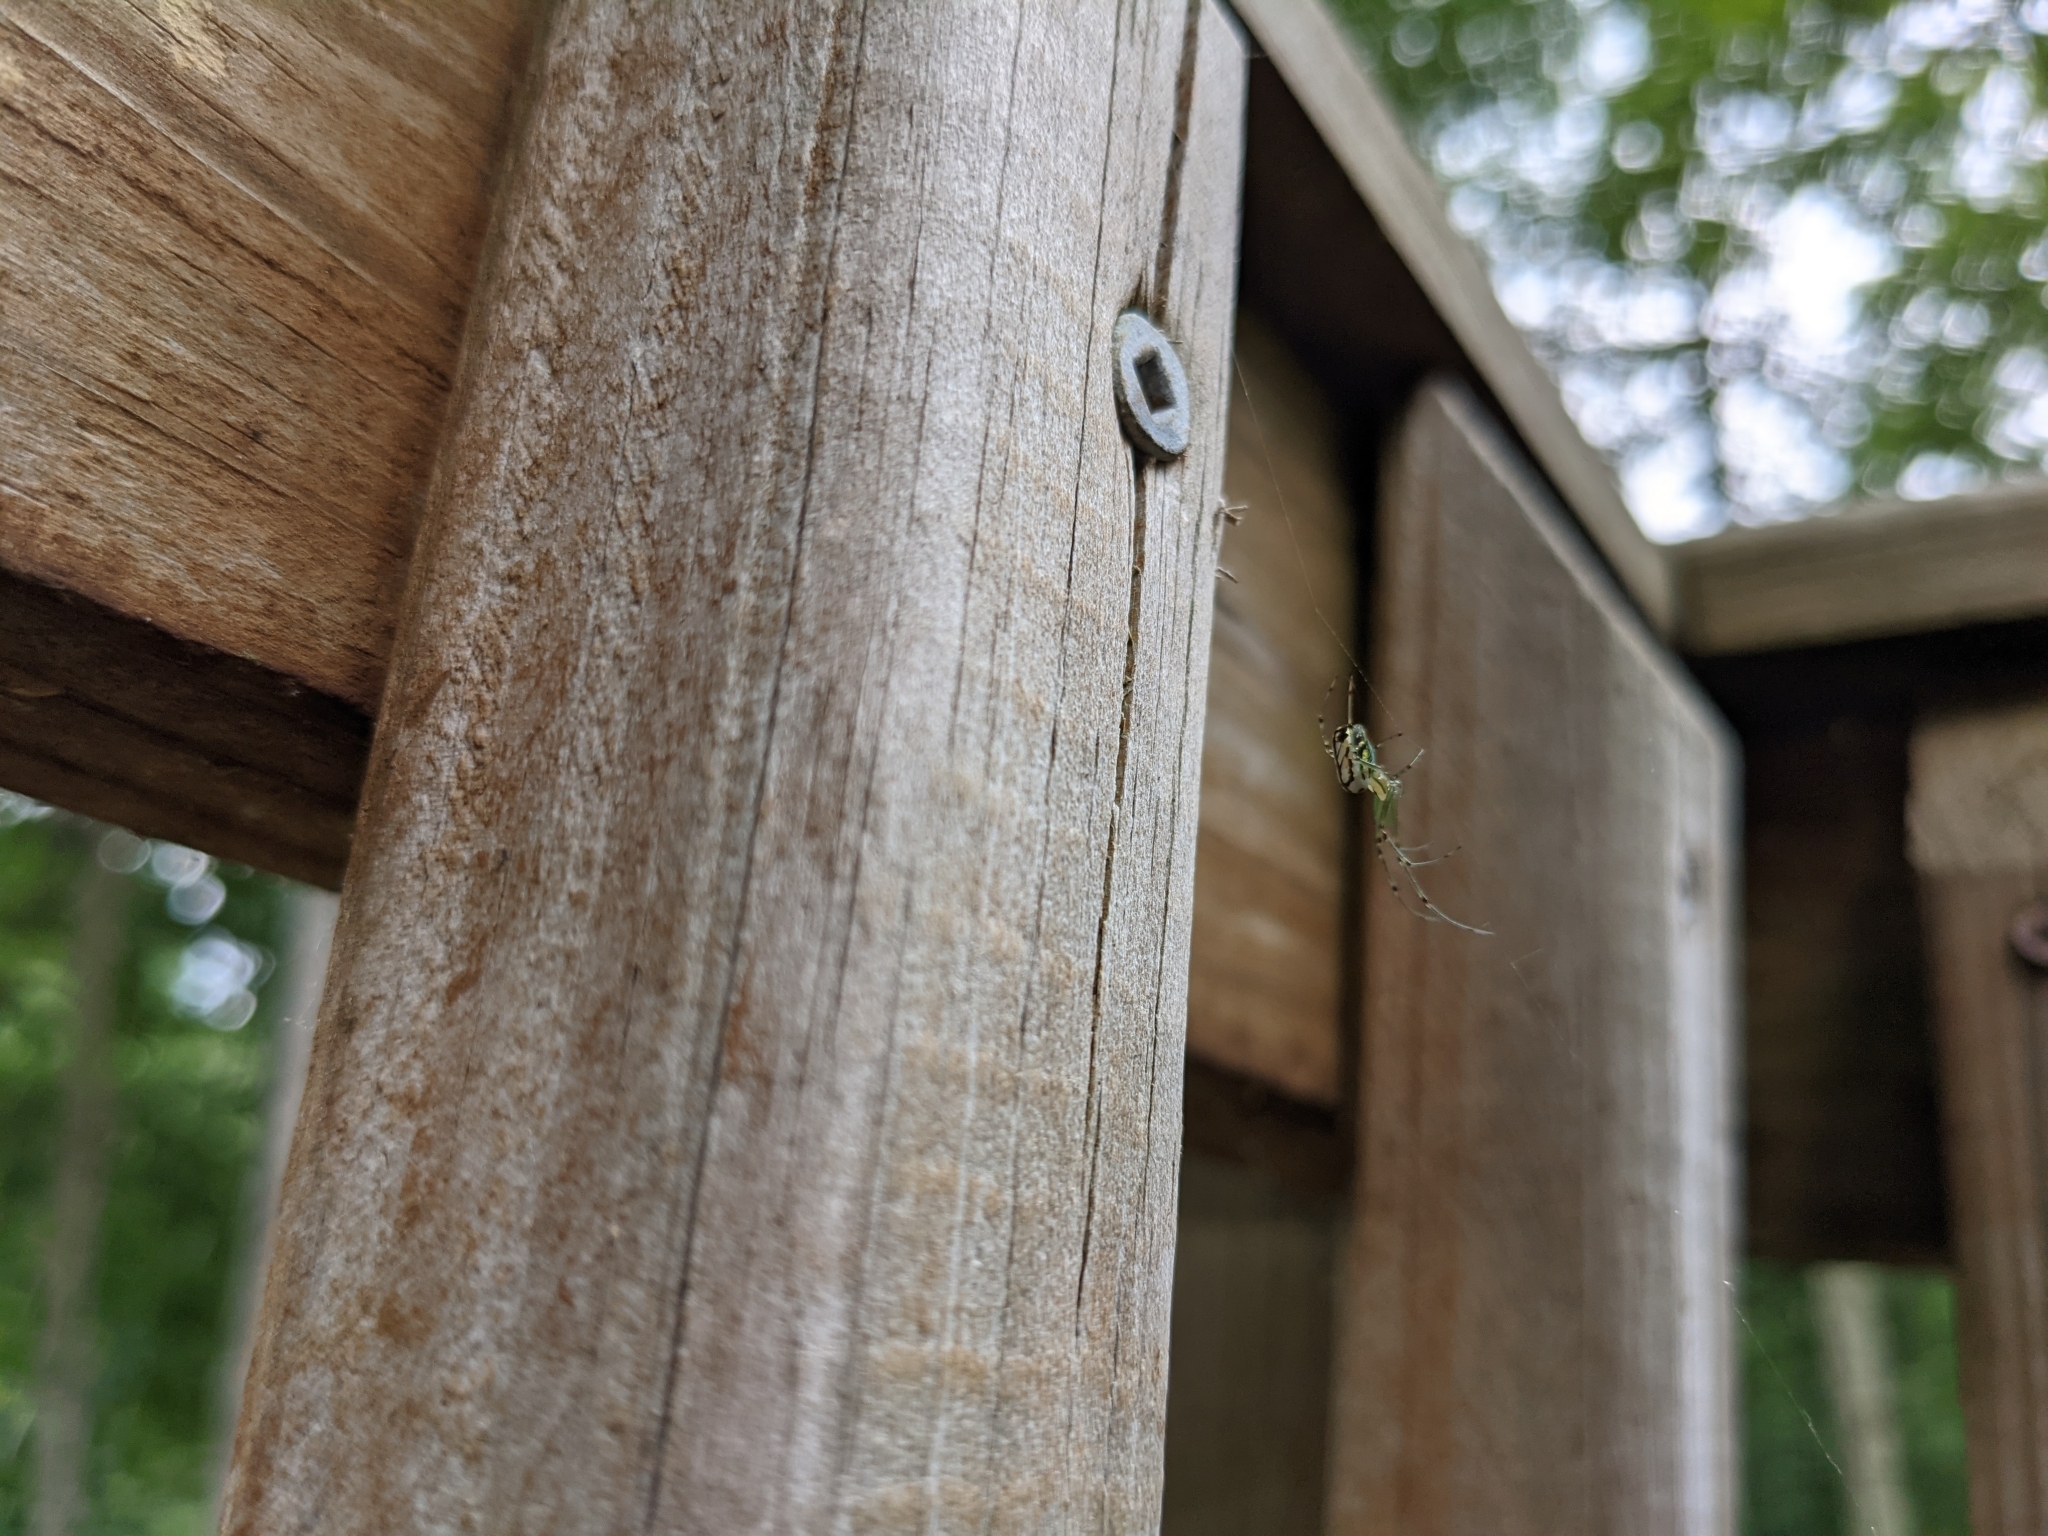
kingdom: Animalia
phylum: Arthropoda
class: Arachnida
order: Araneae
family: Tetragnathidae
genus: Leucauge
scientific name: Leucauge venusta
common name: Longjawed orb weavers
